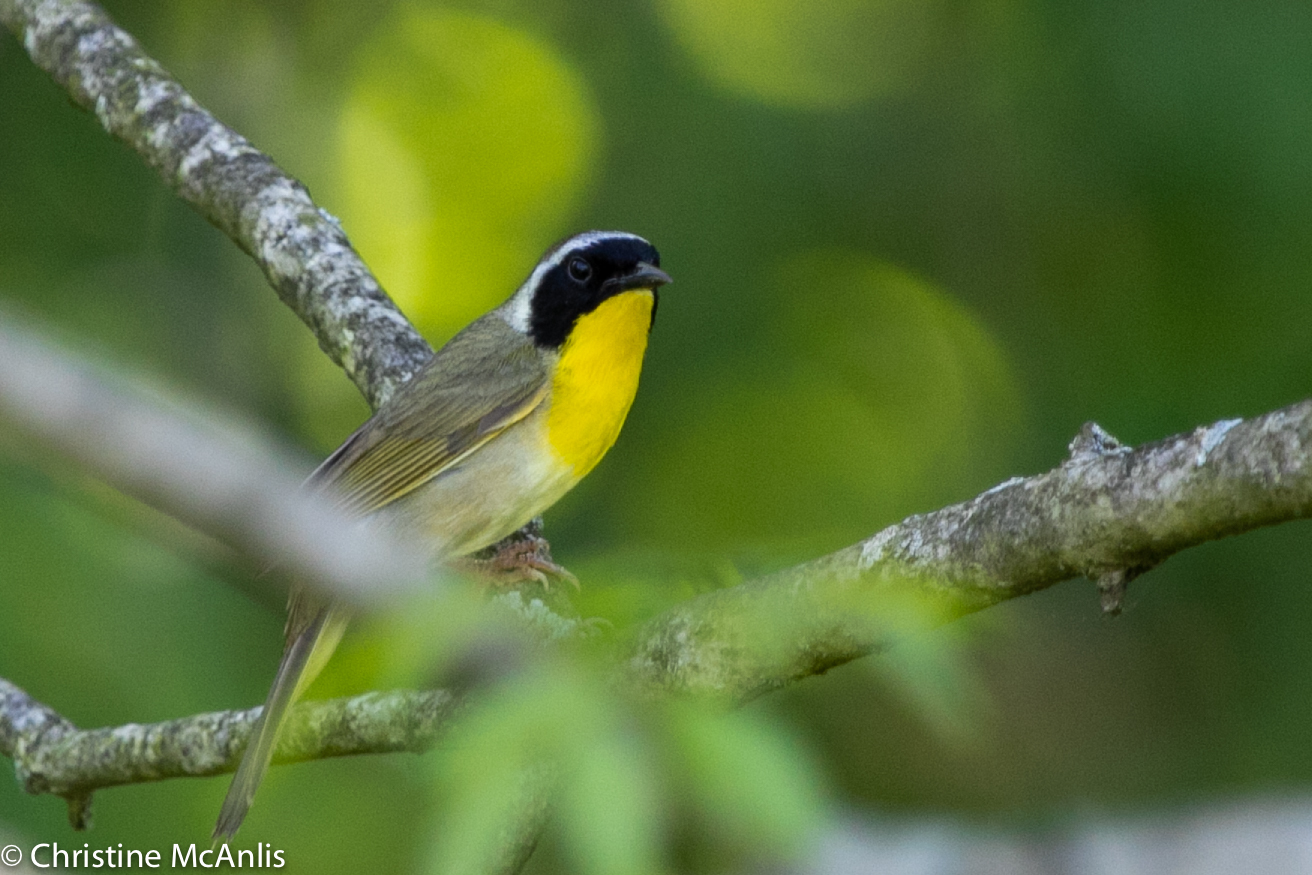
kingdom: Animalia
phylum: Chordata
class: Aves
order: Passeriformes
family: Parulidae
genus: Geothlypis
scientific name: Geothlypis trichas
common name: Common yellowthroat
